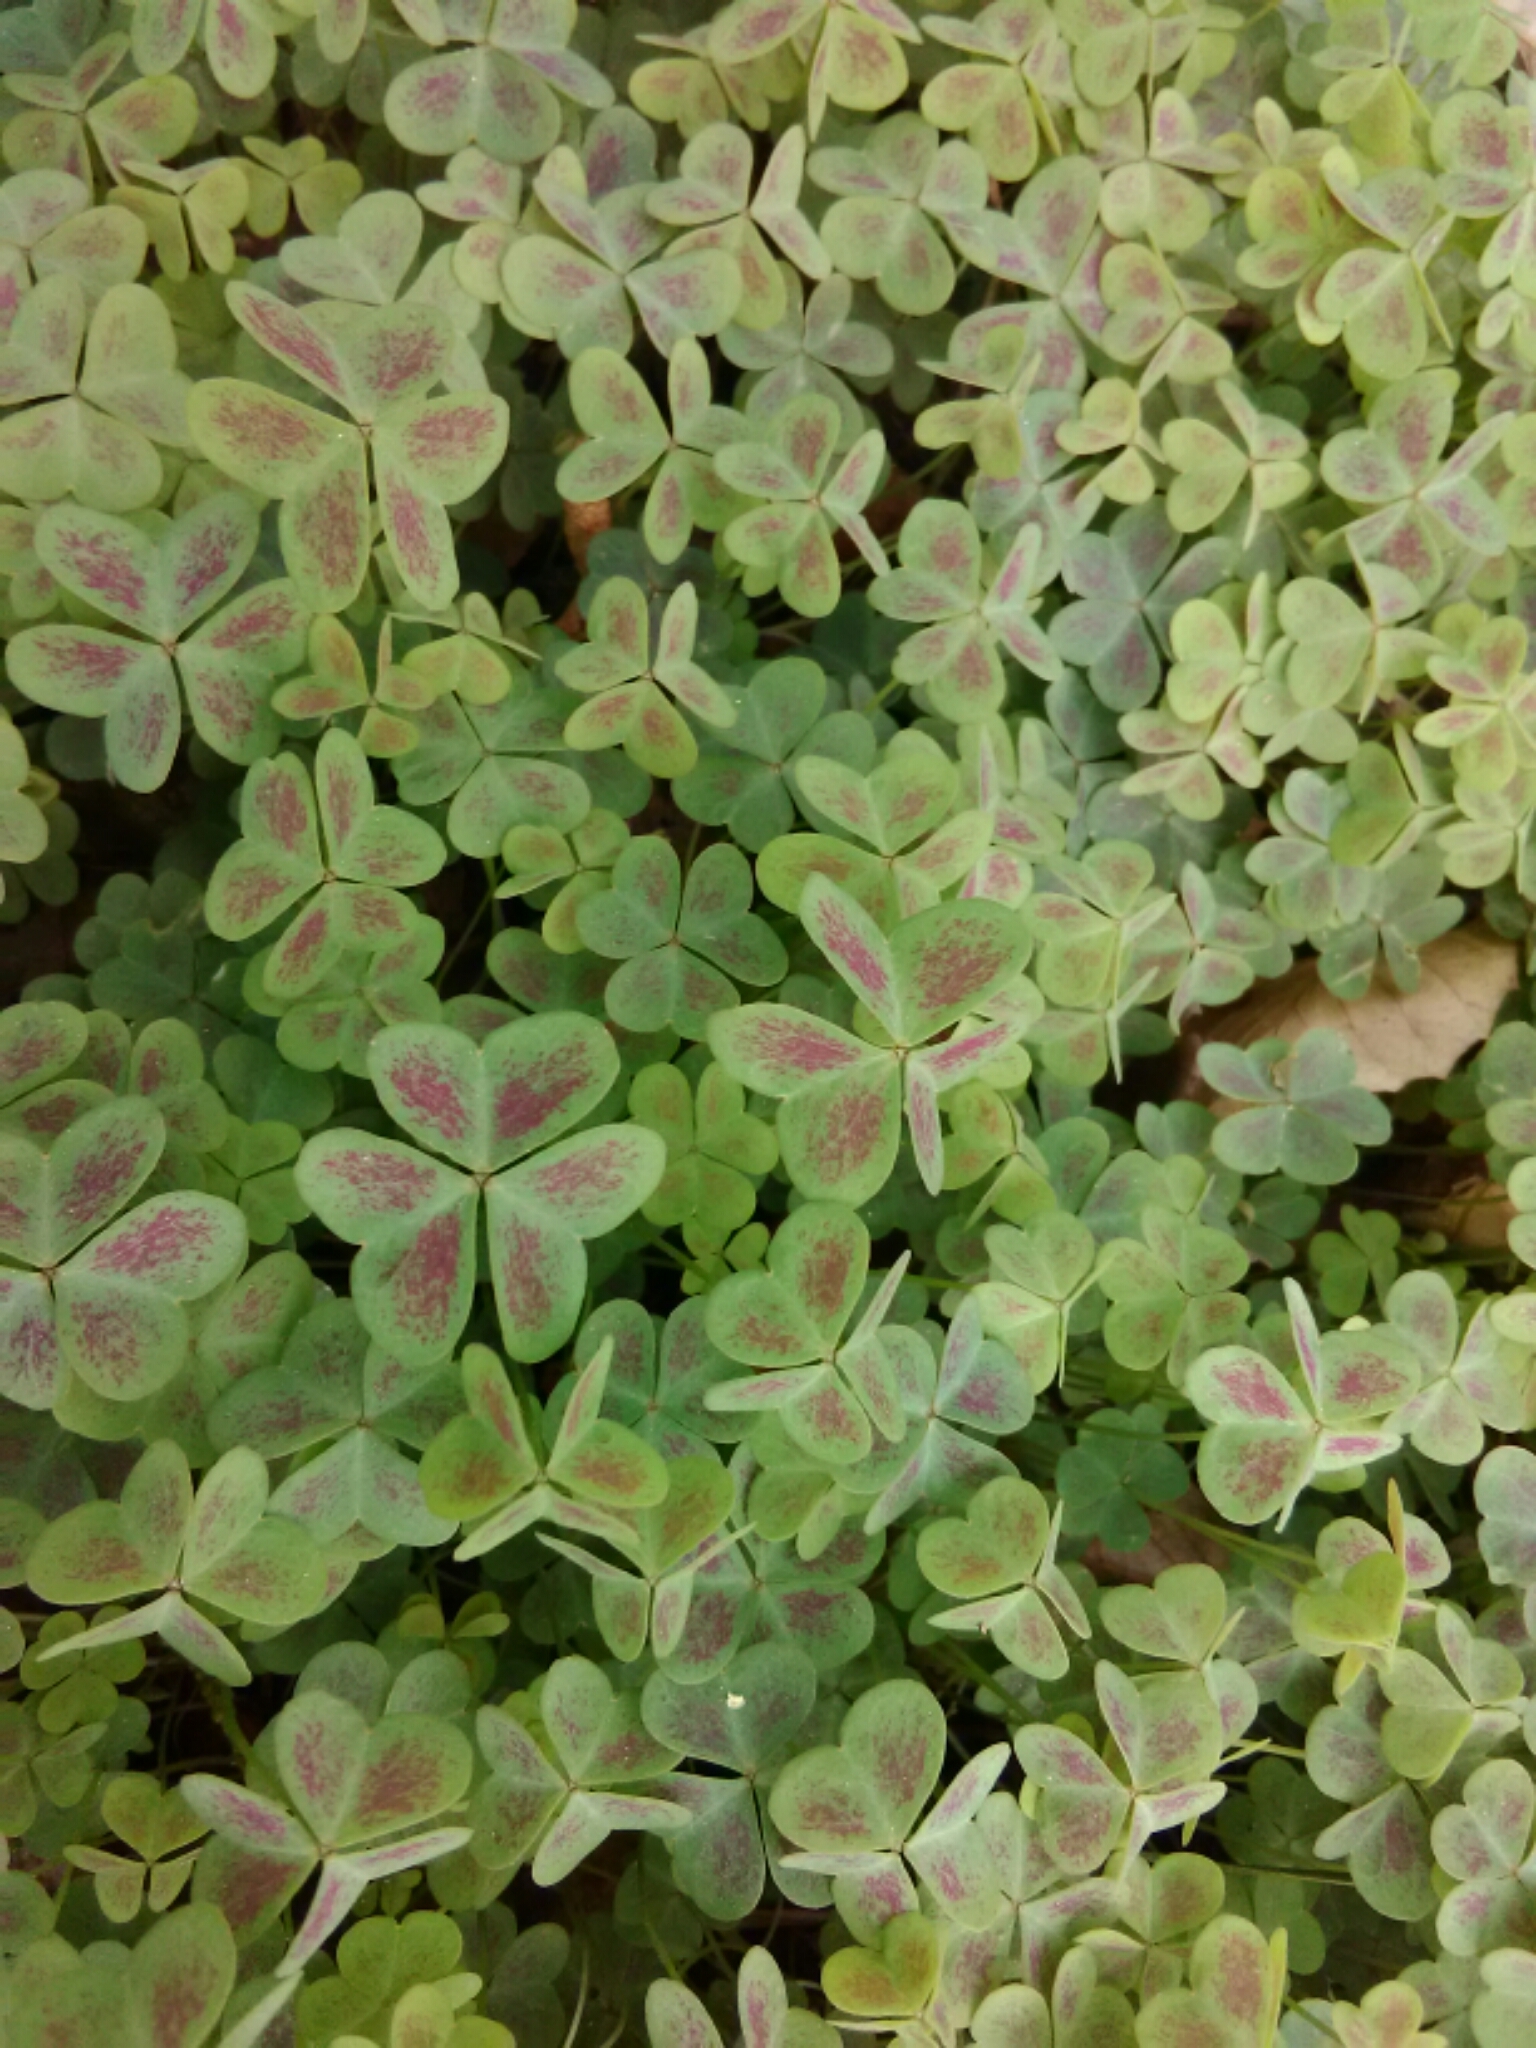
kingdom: Plantae
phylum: Tracheophyta
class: Magnoliopsida
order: Oxalidales
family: Oxalidaceae
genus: Oxalis
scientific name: Oxalis violacea
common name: Violet wood-sorrel
